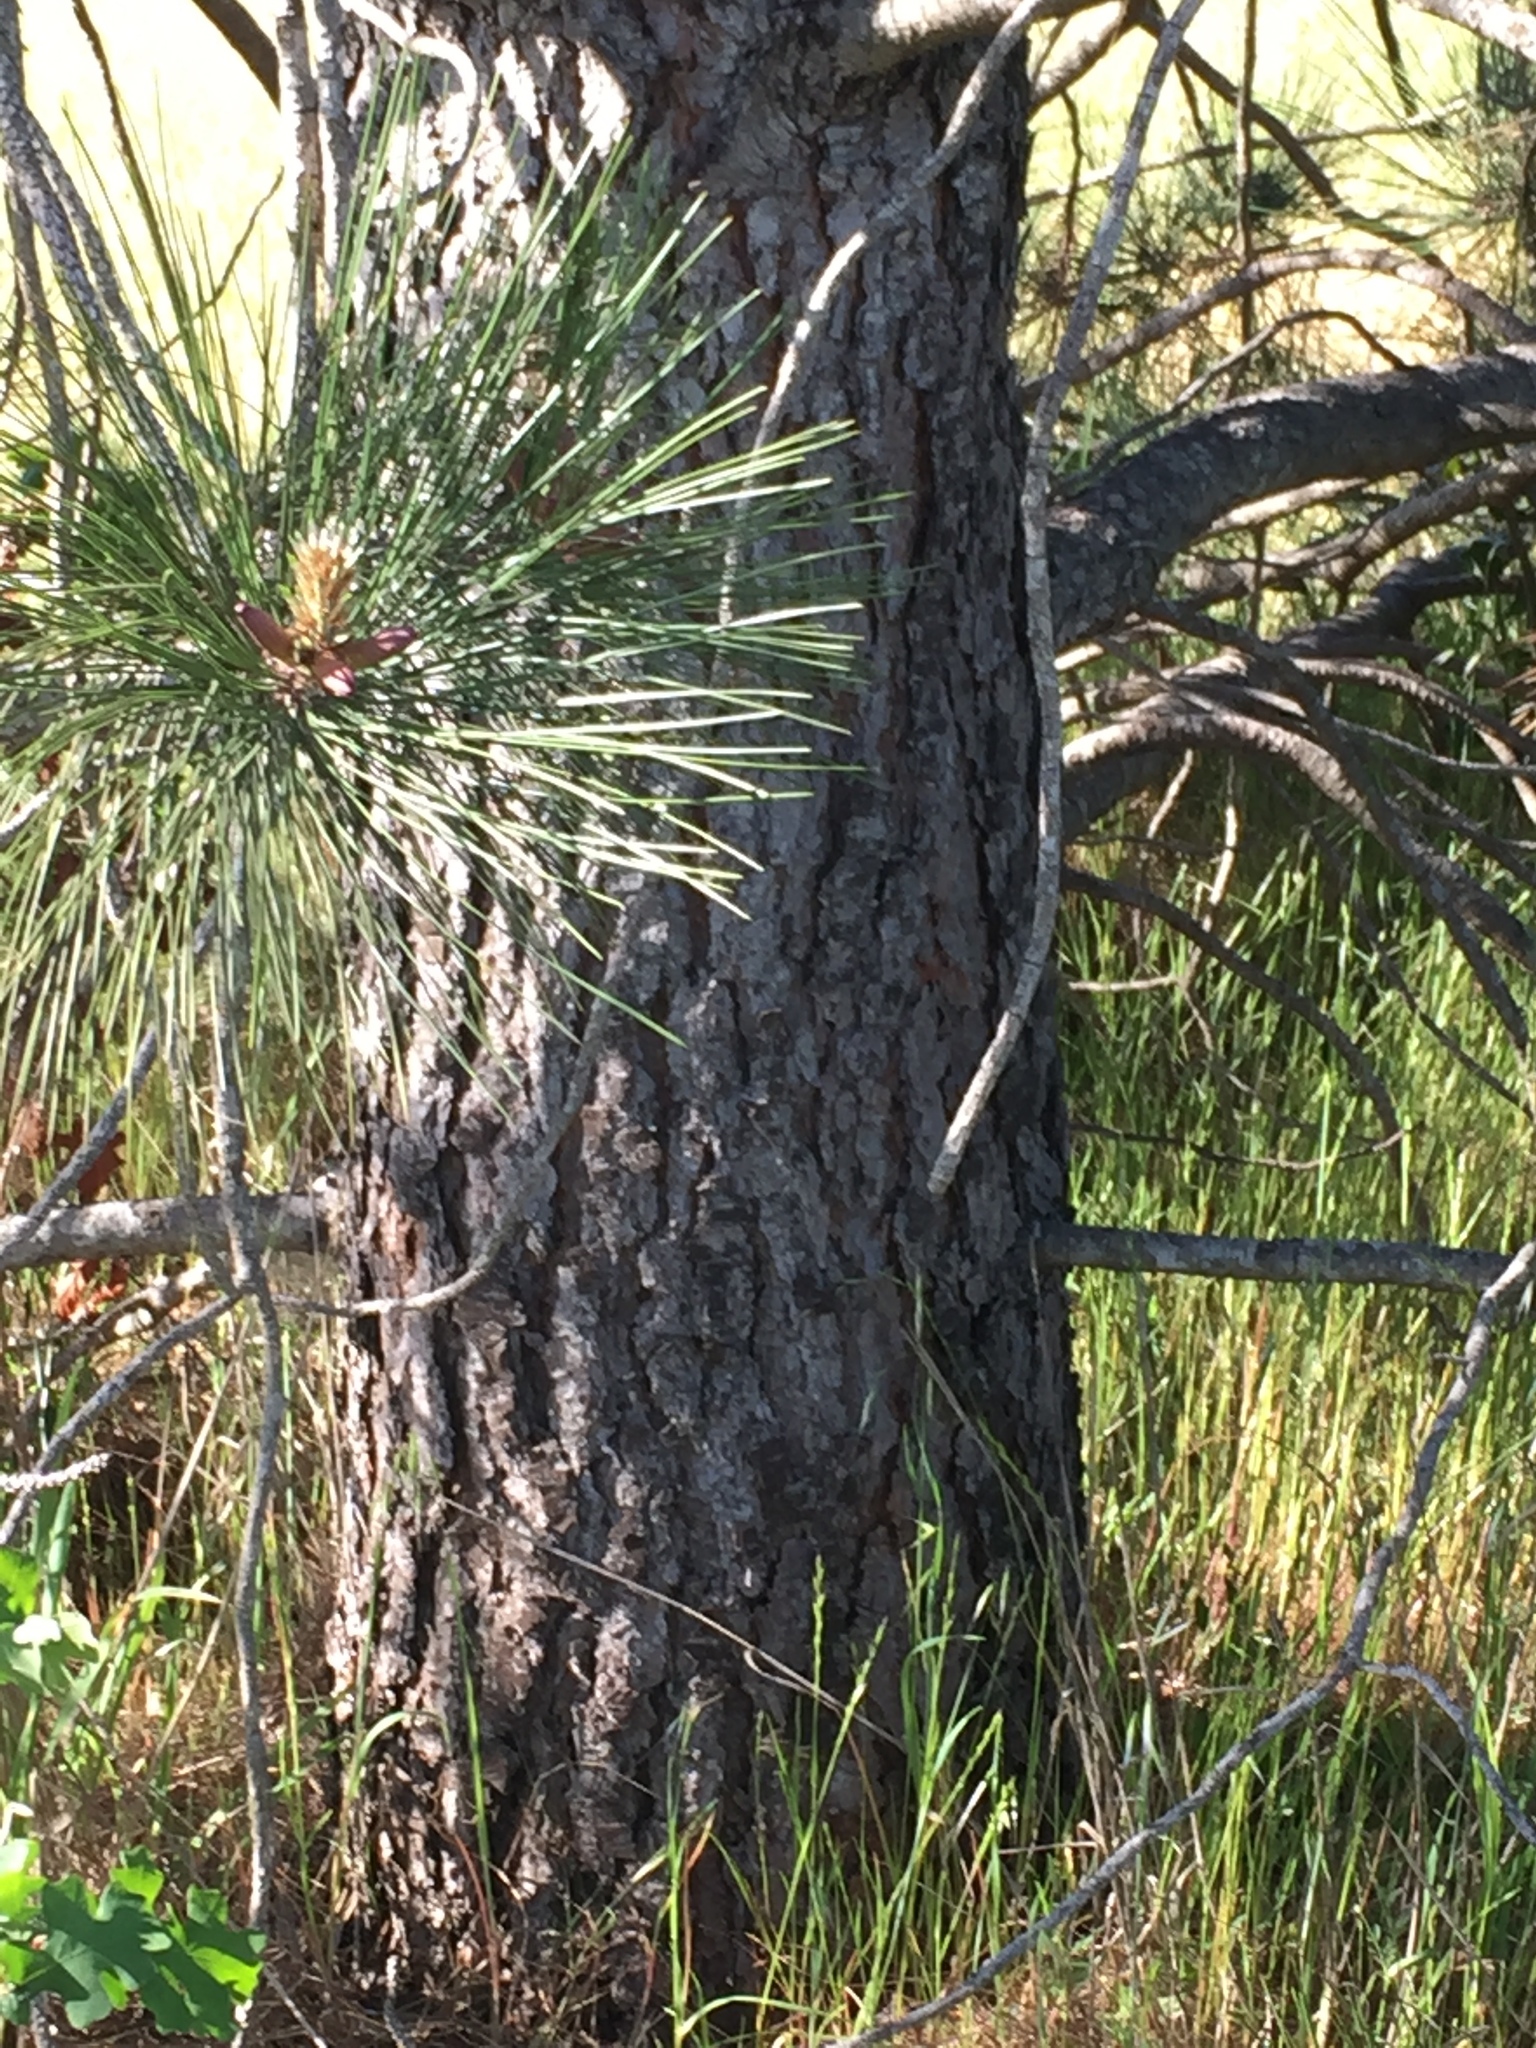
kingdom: Plantae
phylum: Tracheophyta
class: Pinopsida
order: Pinales
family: Pinaceae
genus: Pinus
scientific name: Pinus ponderosa
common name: Western yellow-pine
